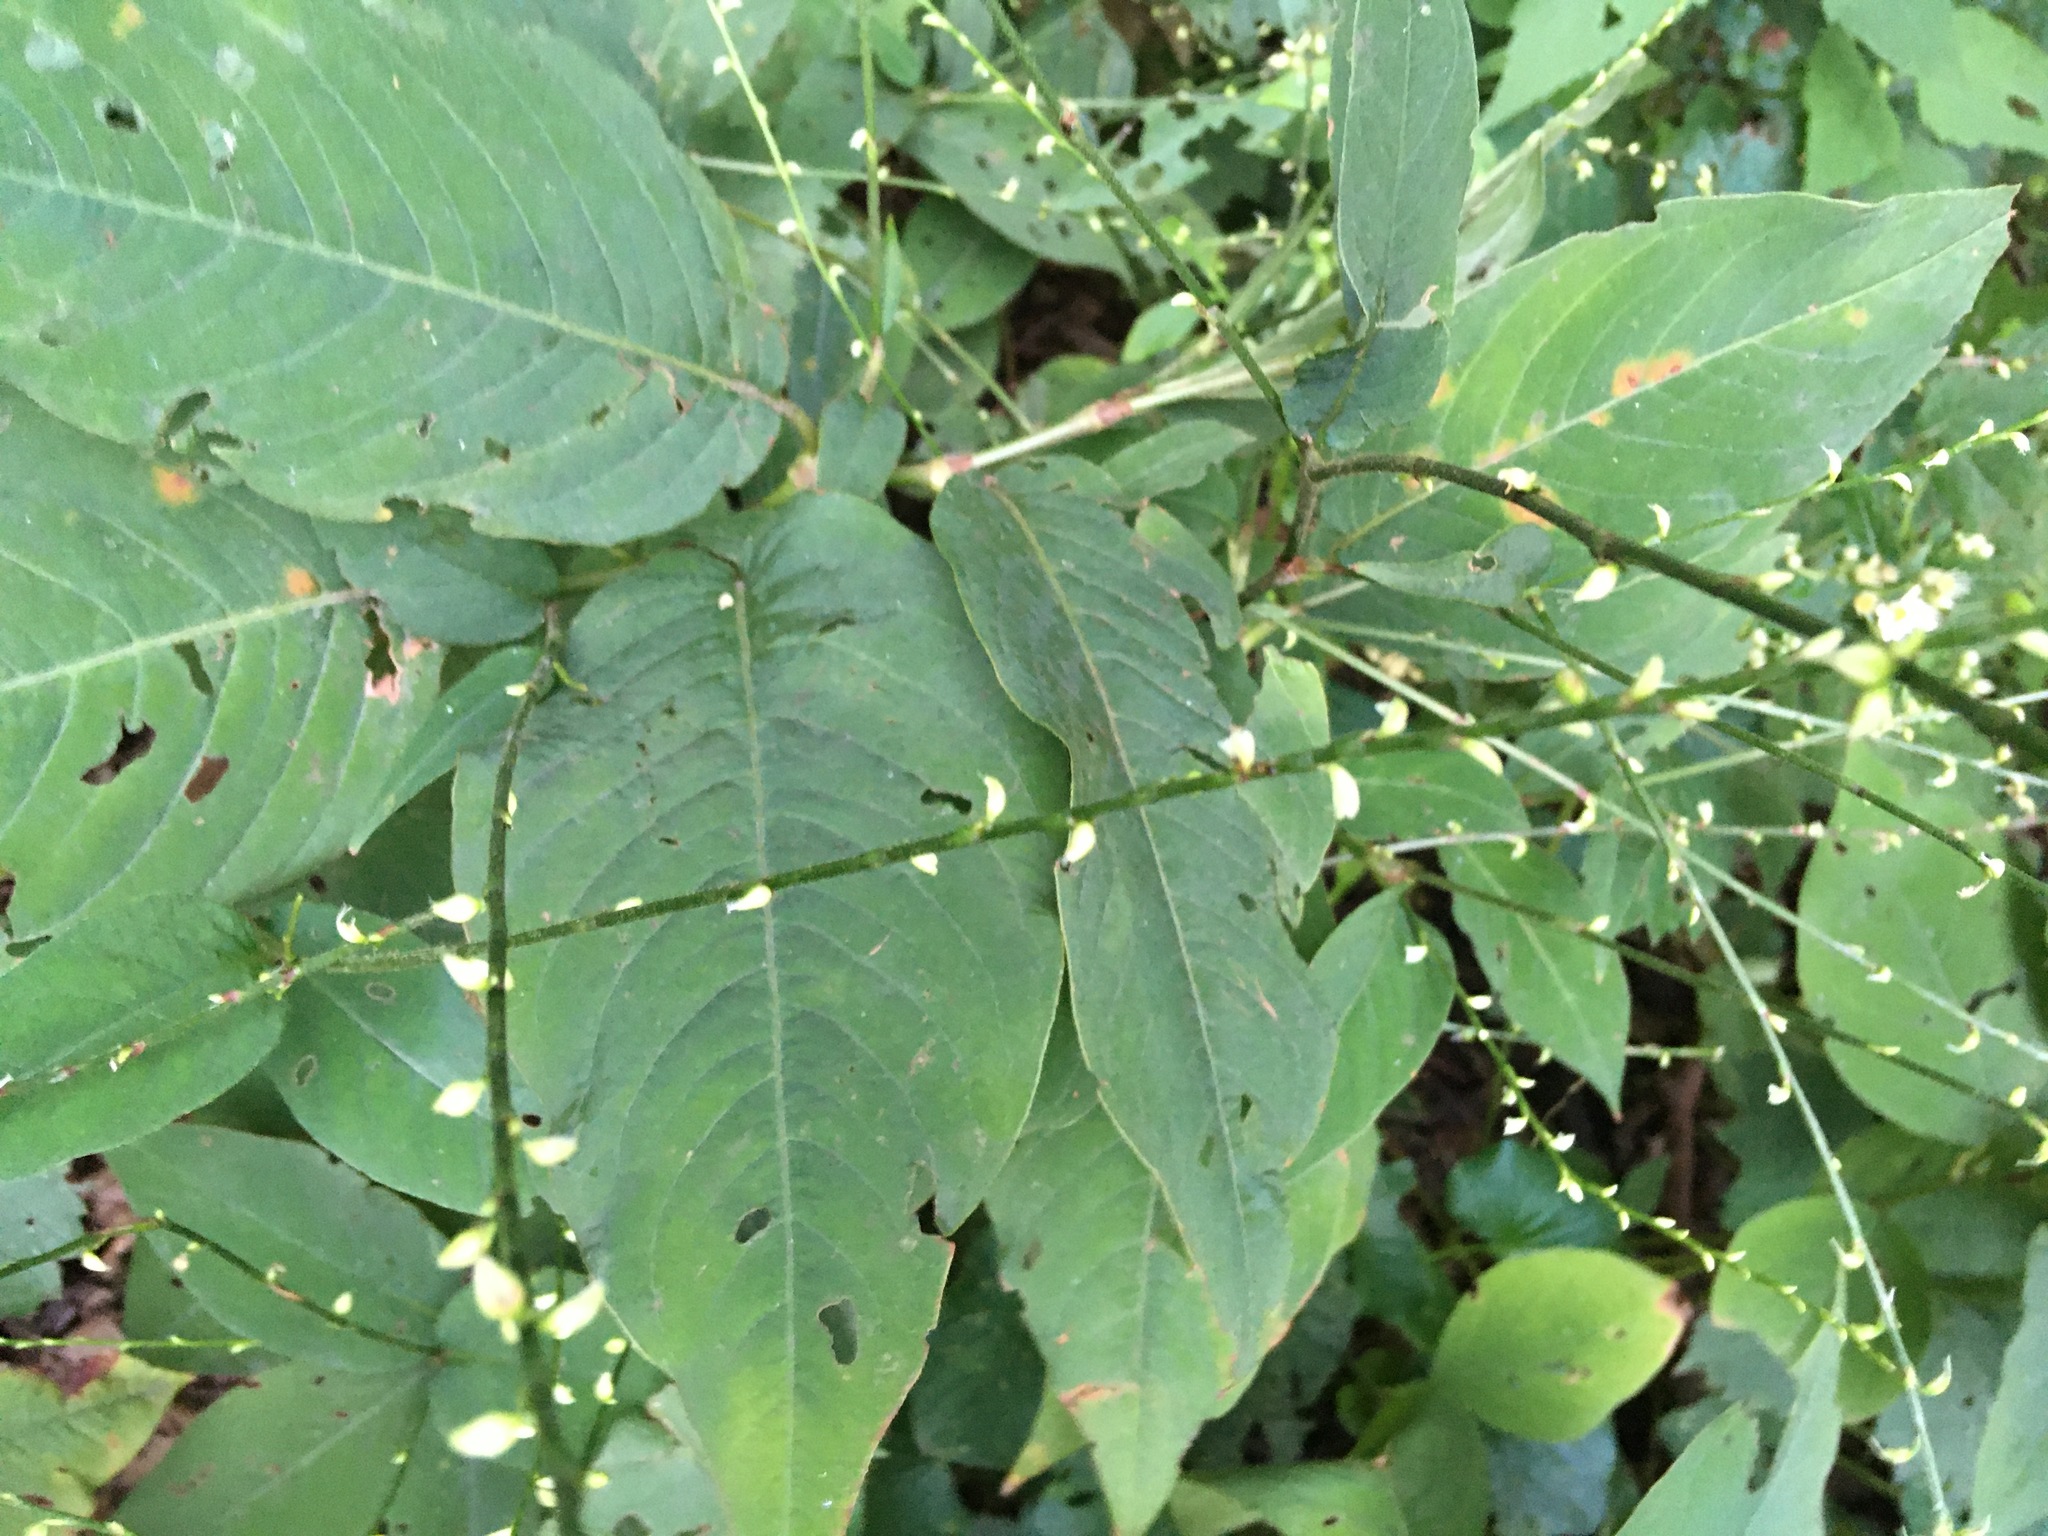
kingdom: Plantae
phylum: Tracheophyta
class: Magnoliopsida
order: Caryophyllales
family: Polygonaceae
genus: Persicaria
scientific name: Persicaria virginiana
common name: Jumpseed
